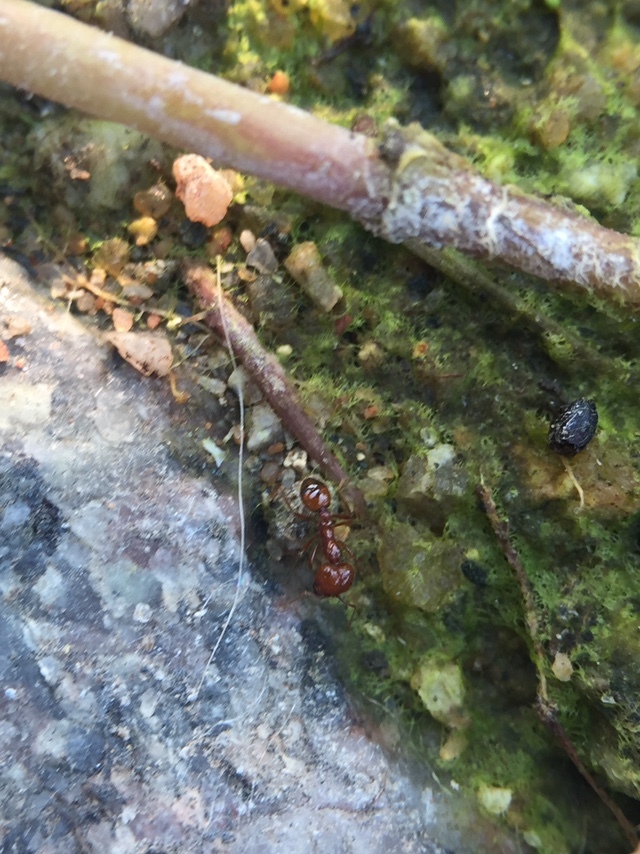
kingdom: Animalia
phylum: Arthropoda
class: Insecta
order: Hymenoptera
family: Formicidae
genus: Solenopsis
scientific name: Solenopsis geminata
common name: Tropical fire ant
